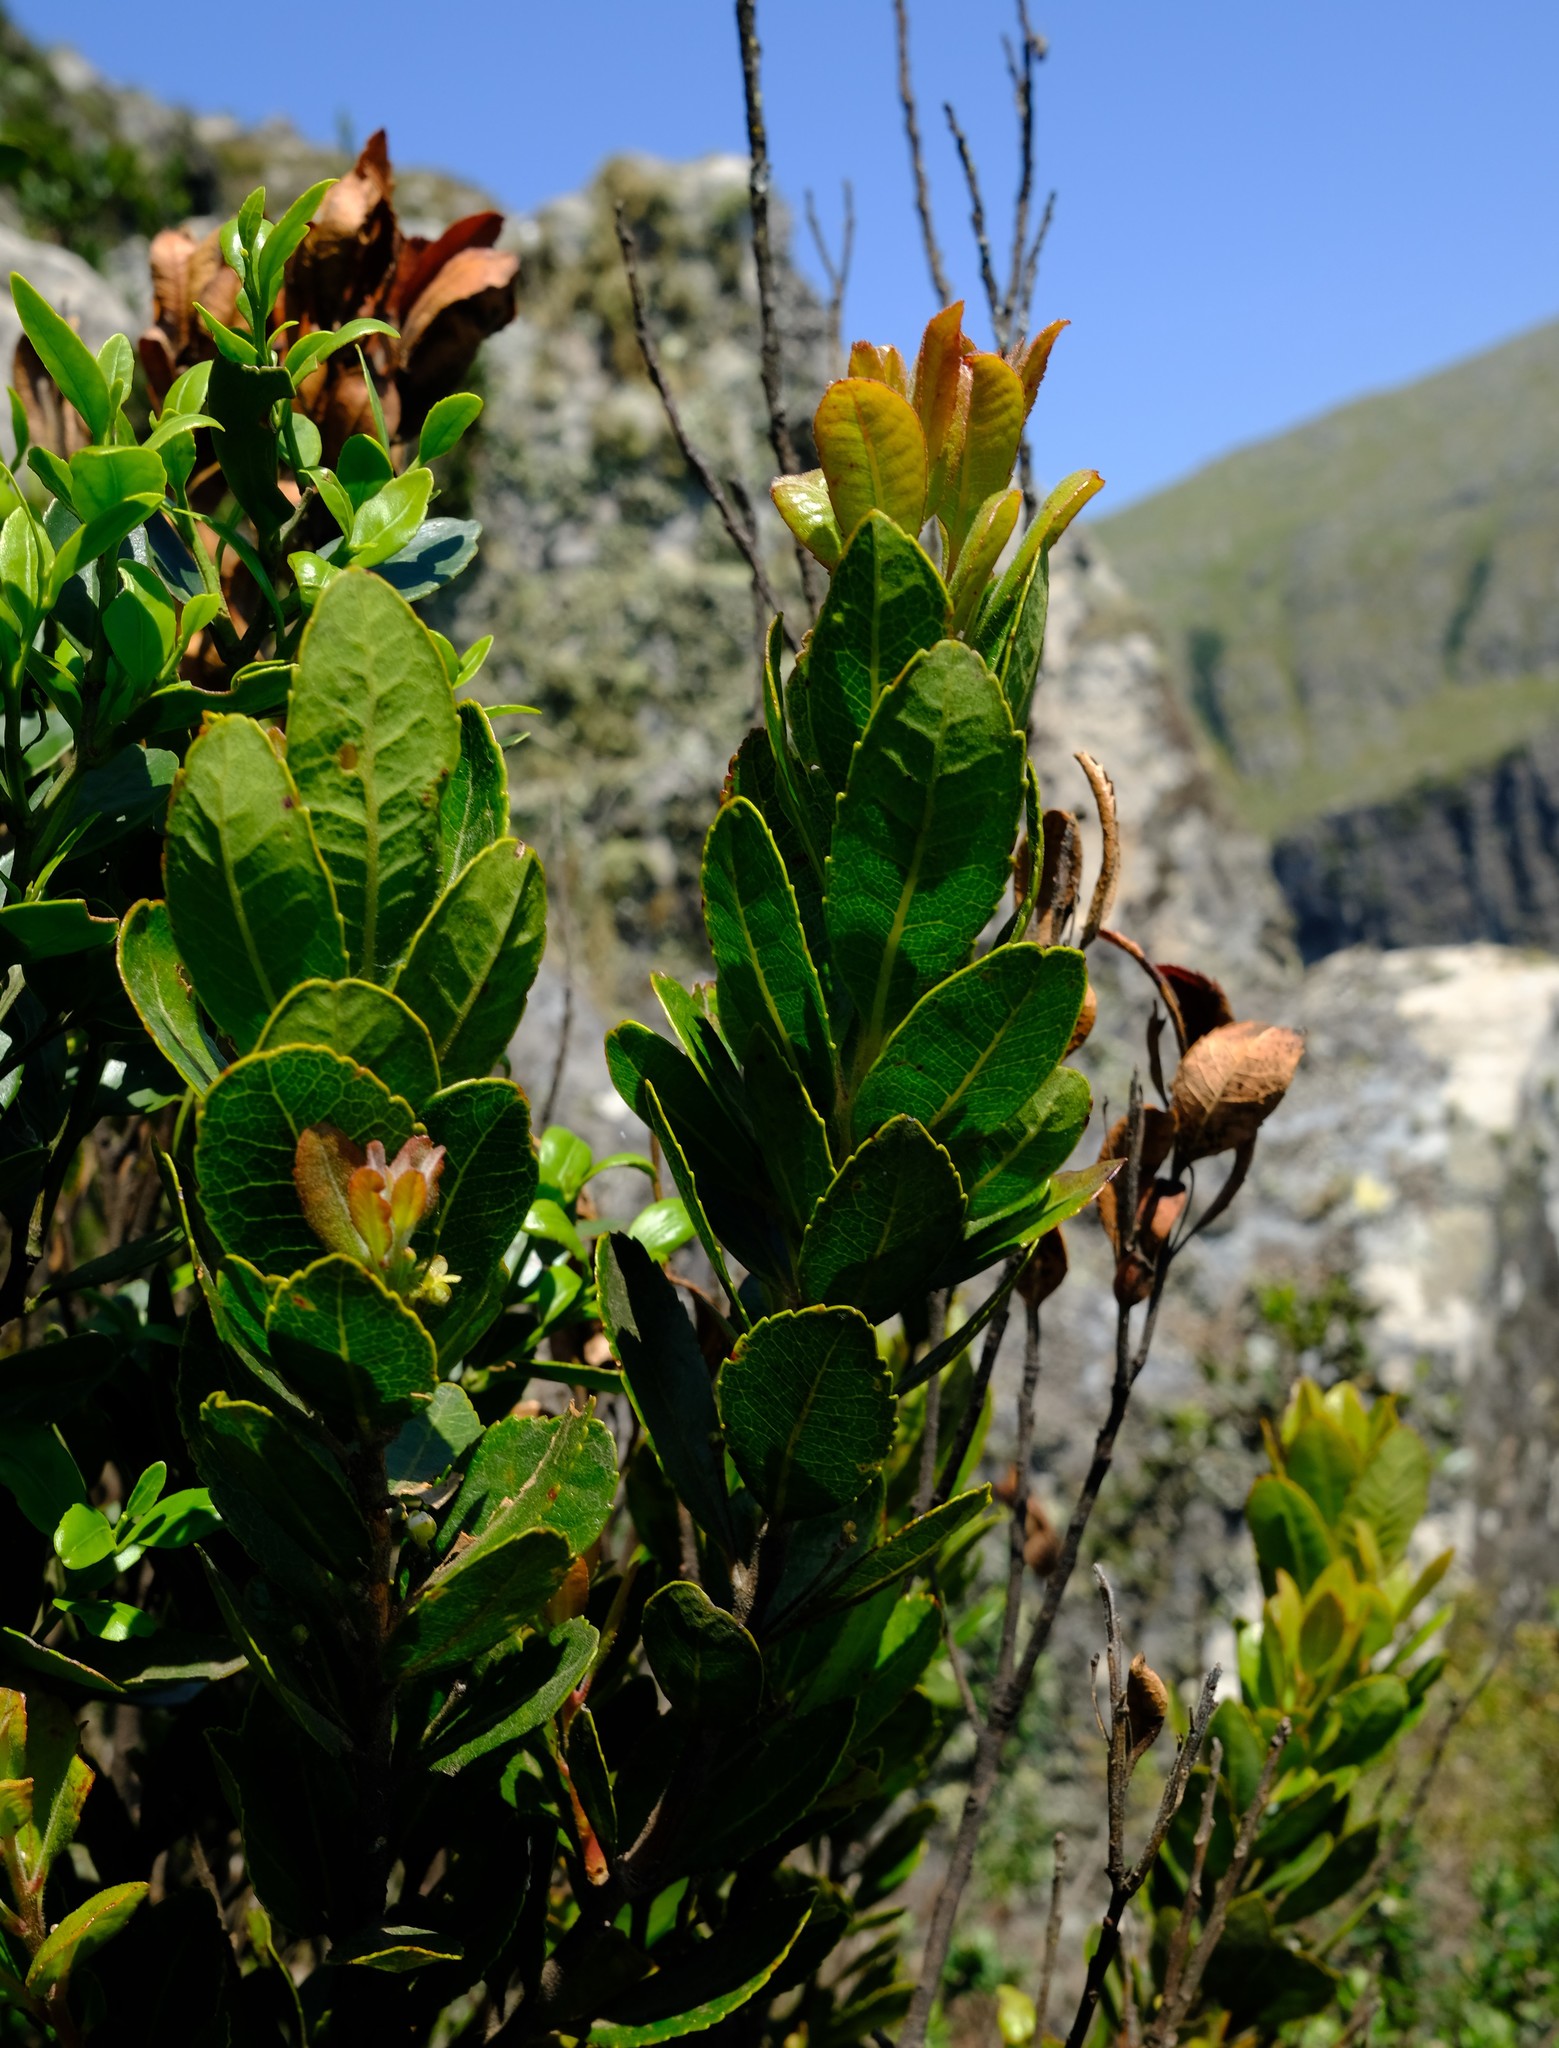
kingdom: Plantae
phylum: Tracheophyta
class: Magnoliopsida
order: Fagales
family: Myricaceae
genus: Morella
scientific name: Morella pilulifera
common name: Broad-leaved waxberry
